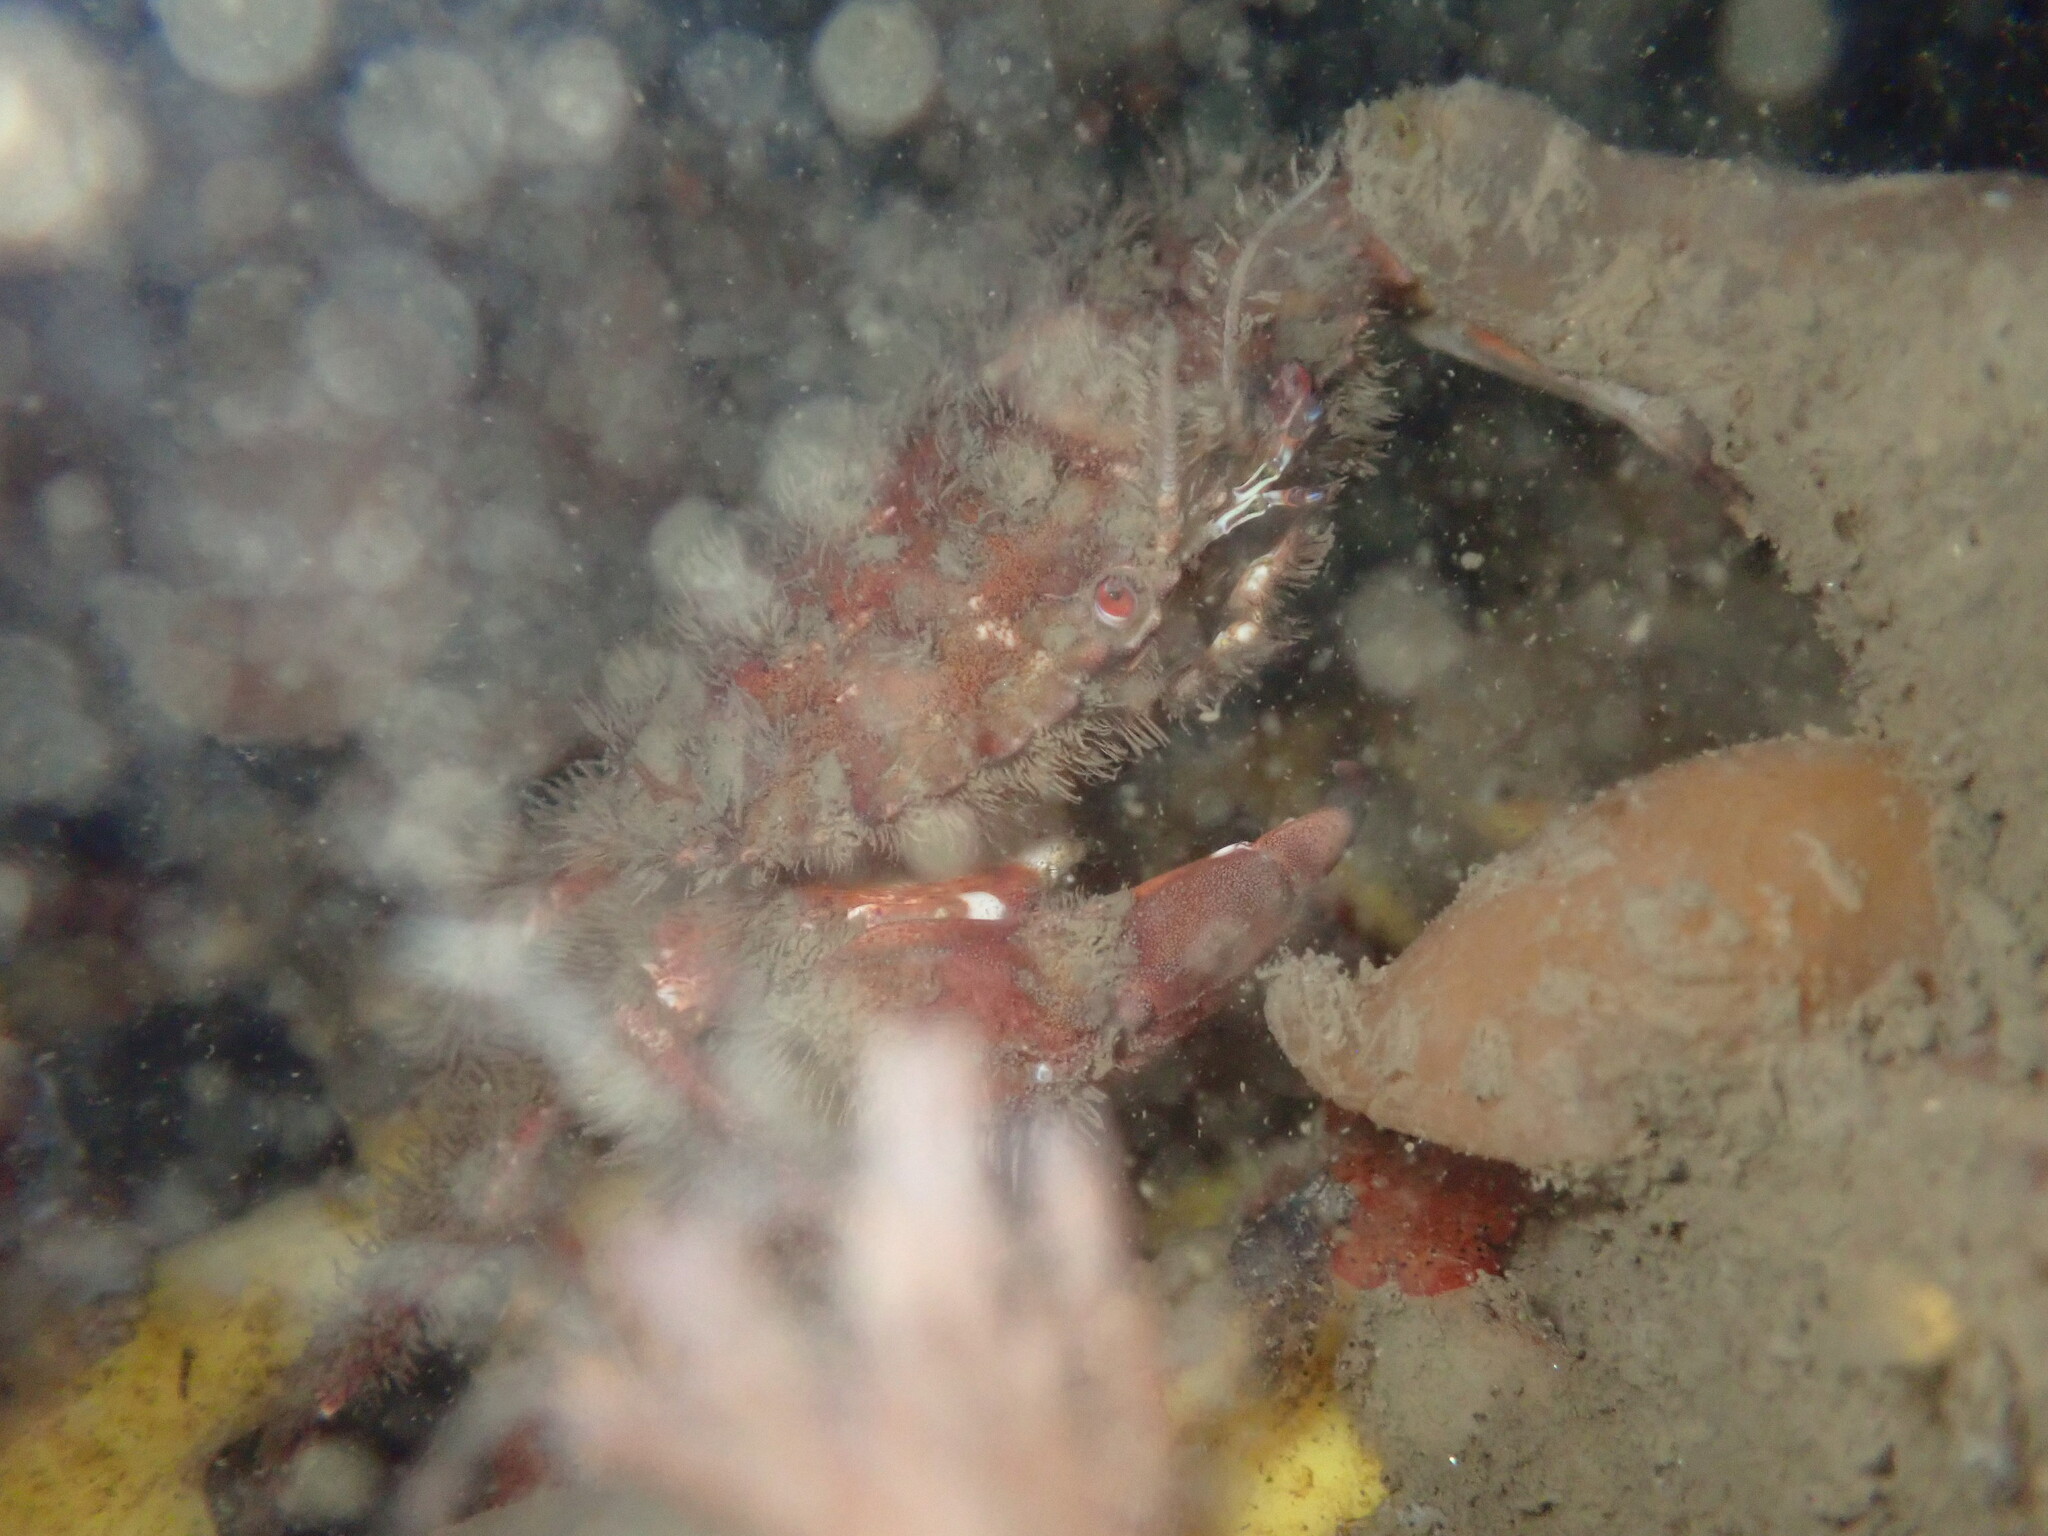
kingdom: Animalia
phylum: Arthropoda
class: Malacostraca
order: Decapoda
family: Cancridae
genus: Romaleon
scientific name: Romaleon antennarium
